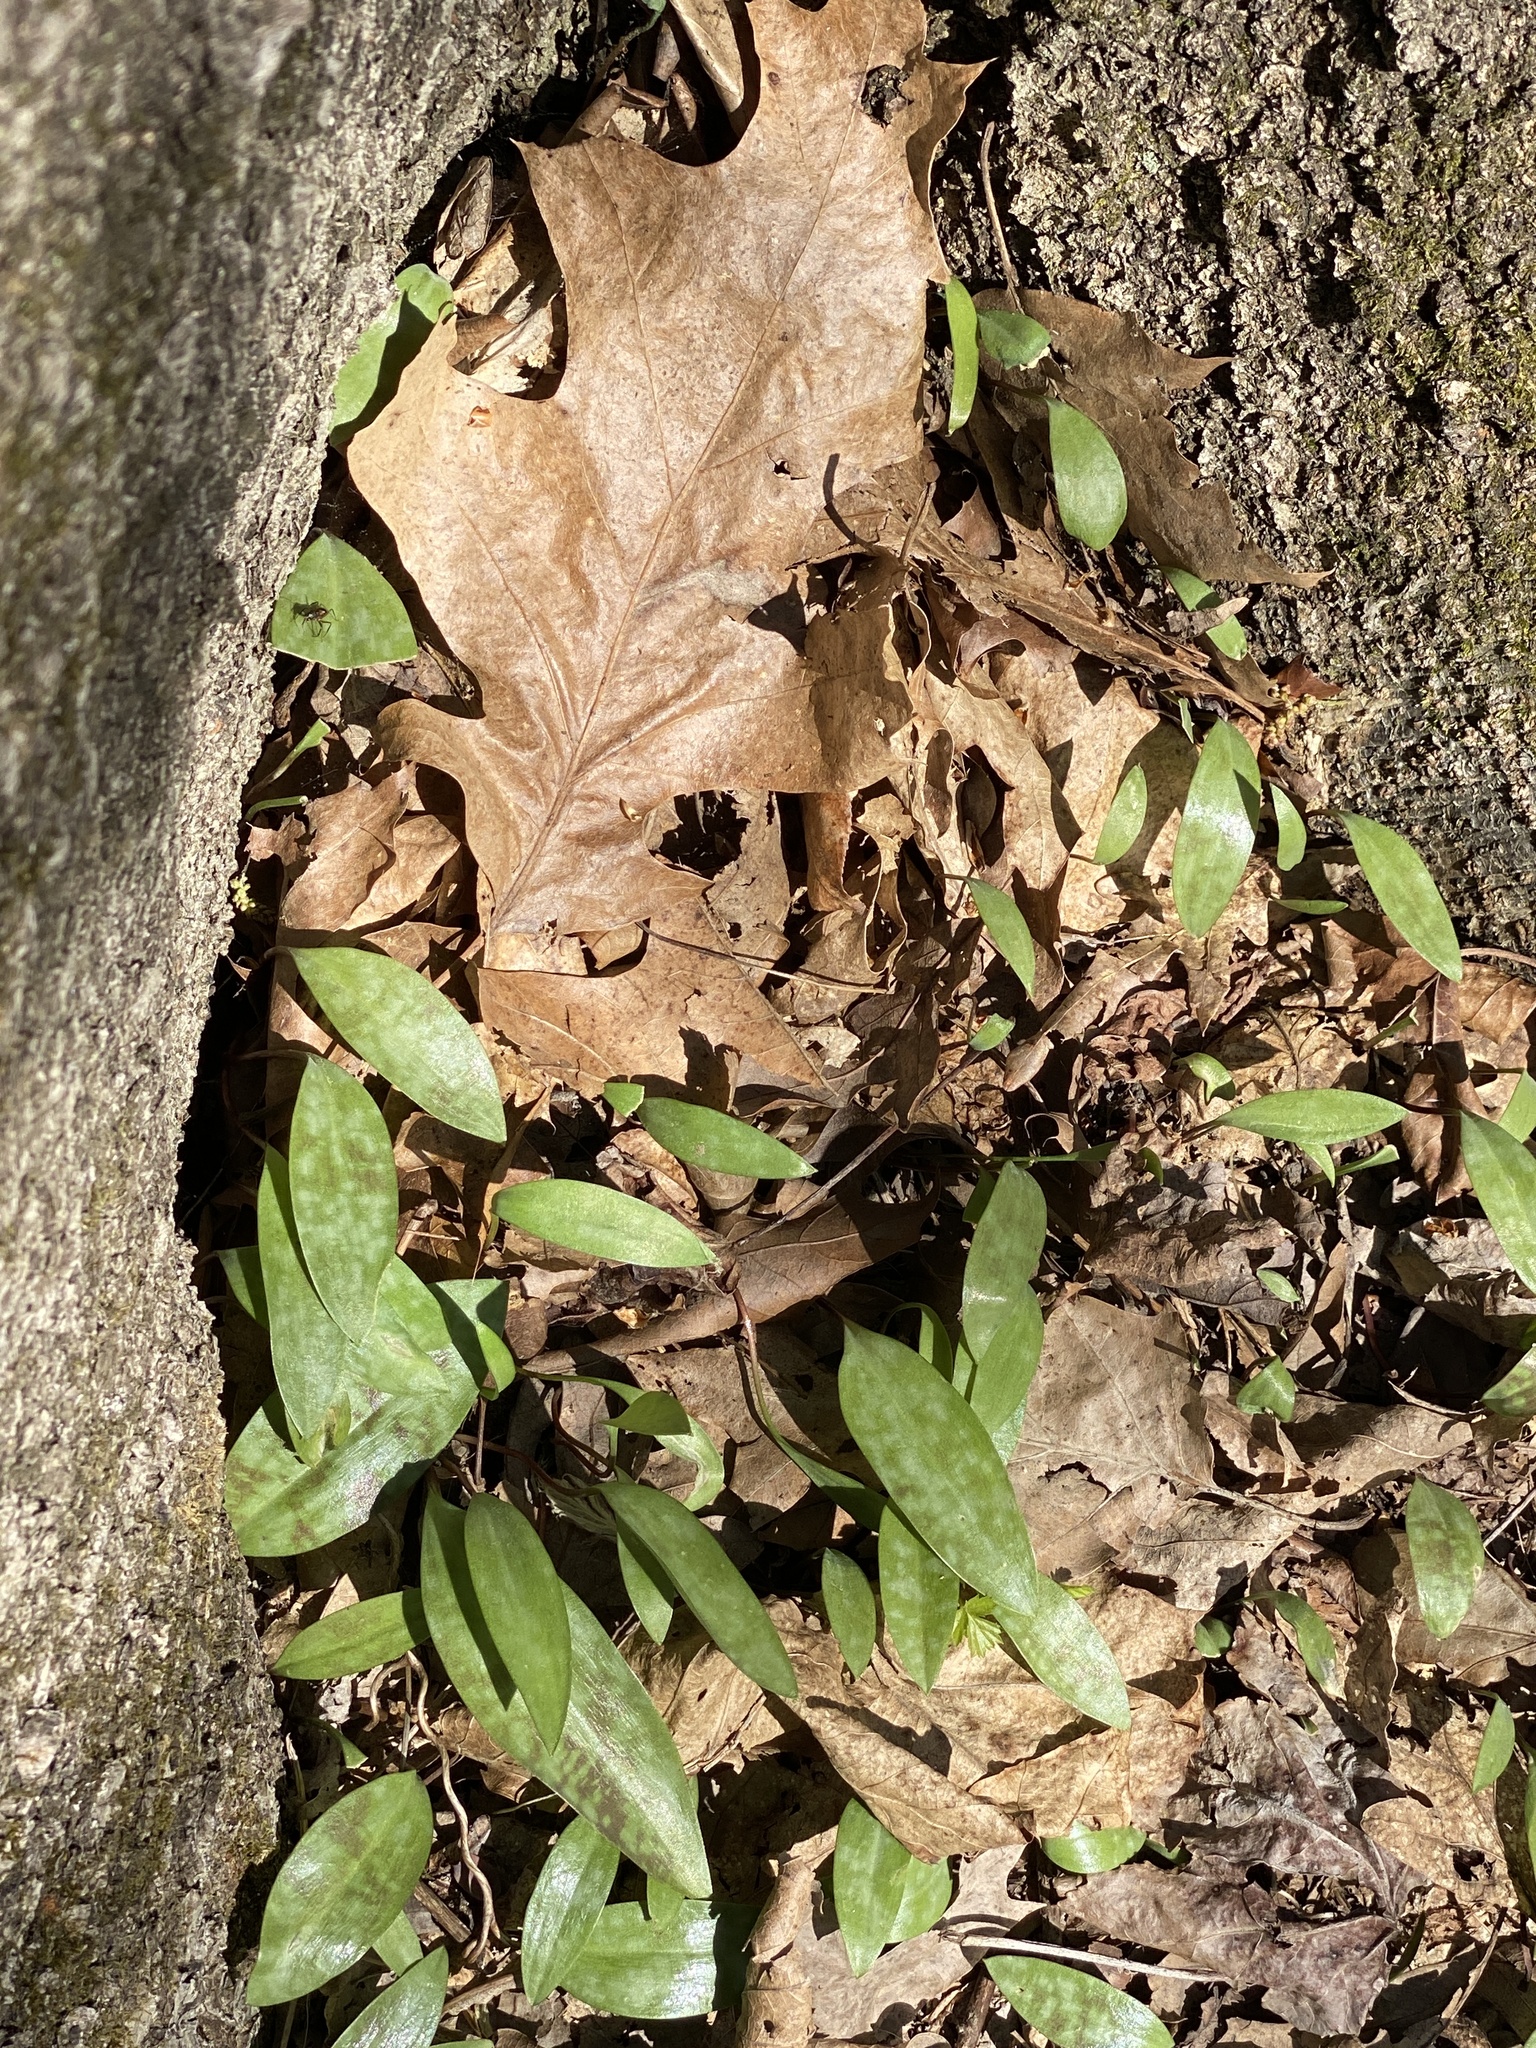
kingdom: Plantae
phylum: Tracheophyta
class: Liliopsida
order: Liliales
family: Liliaceae
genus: Erythronium
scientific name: Erythronium americanum
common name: Yellow adder's-tongue
